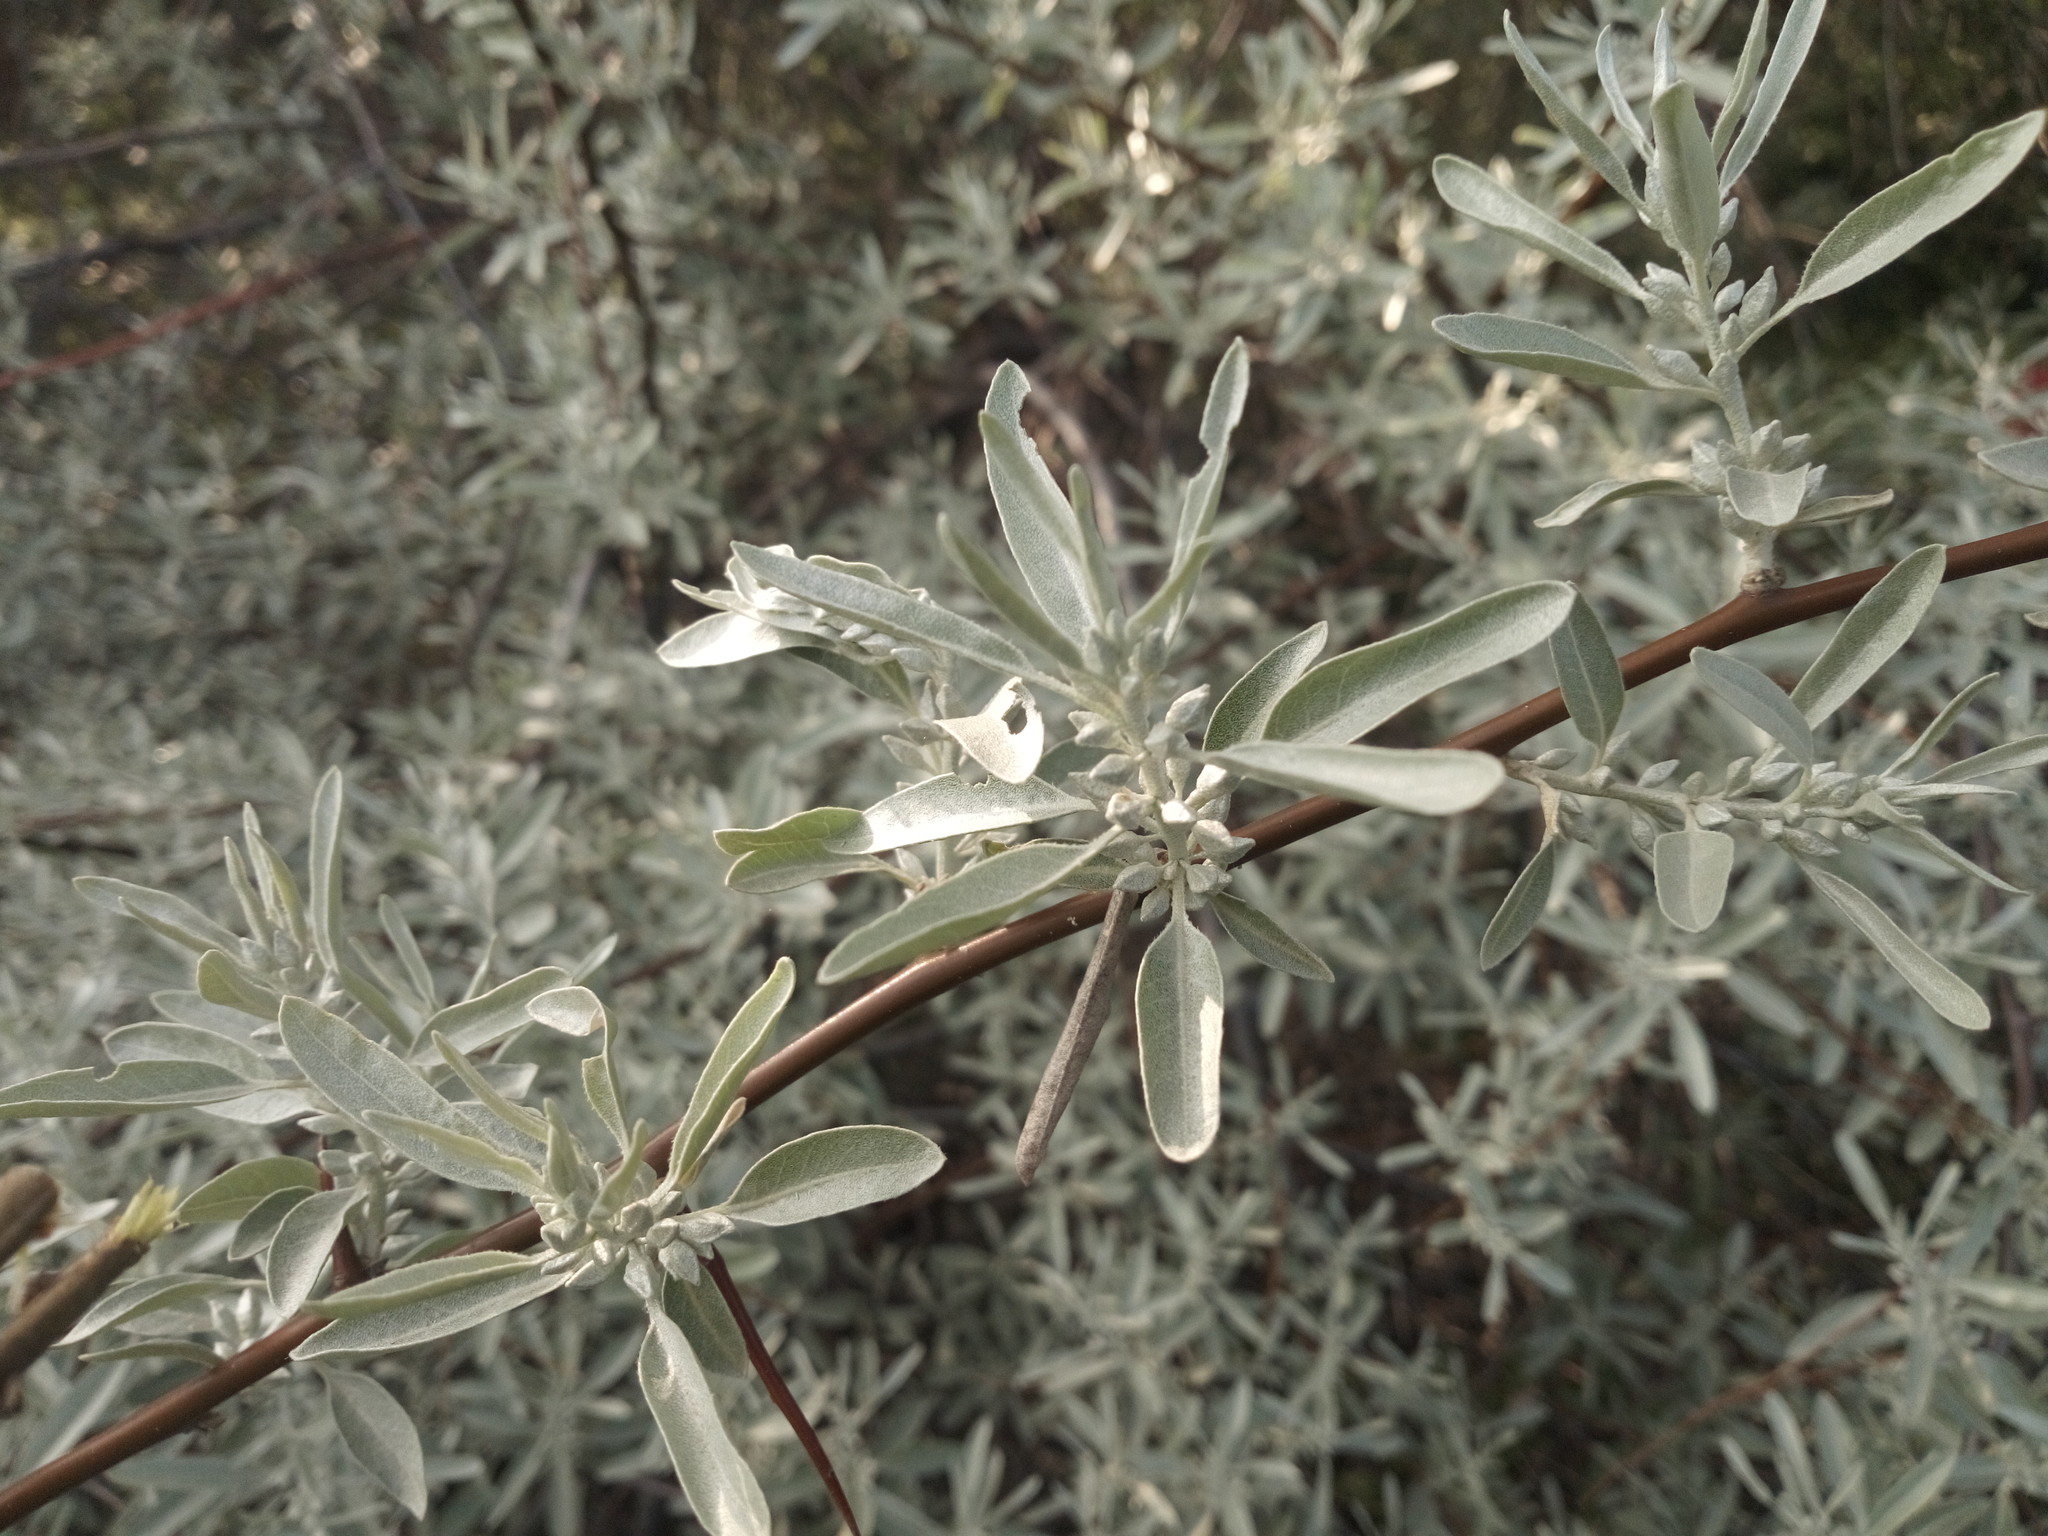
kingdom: Plantae
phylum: Tracheophyta
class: Magnoliopsida
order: Rosales
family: Elaeagnaceae
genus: Elaeagnus
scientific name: Elaeagnus angustifolia
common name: Russian olive
